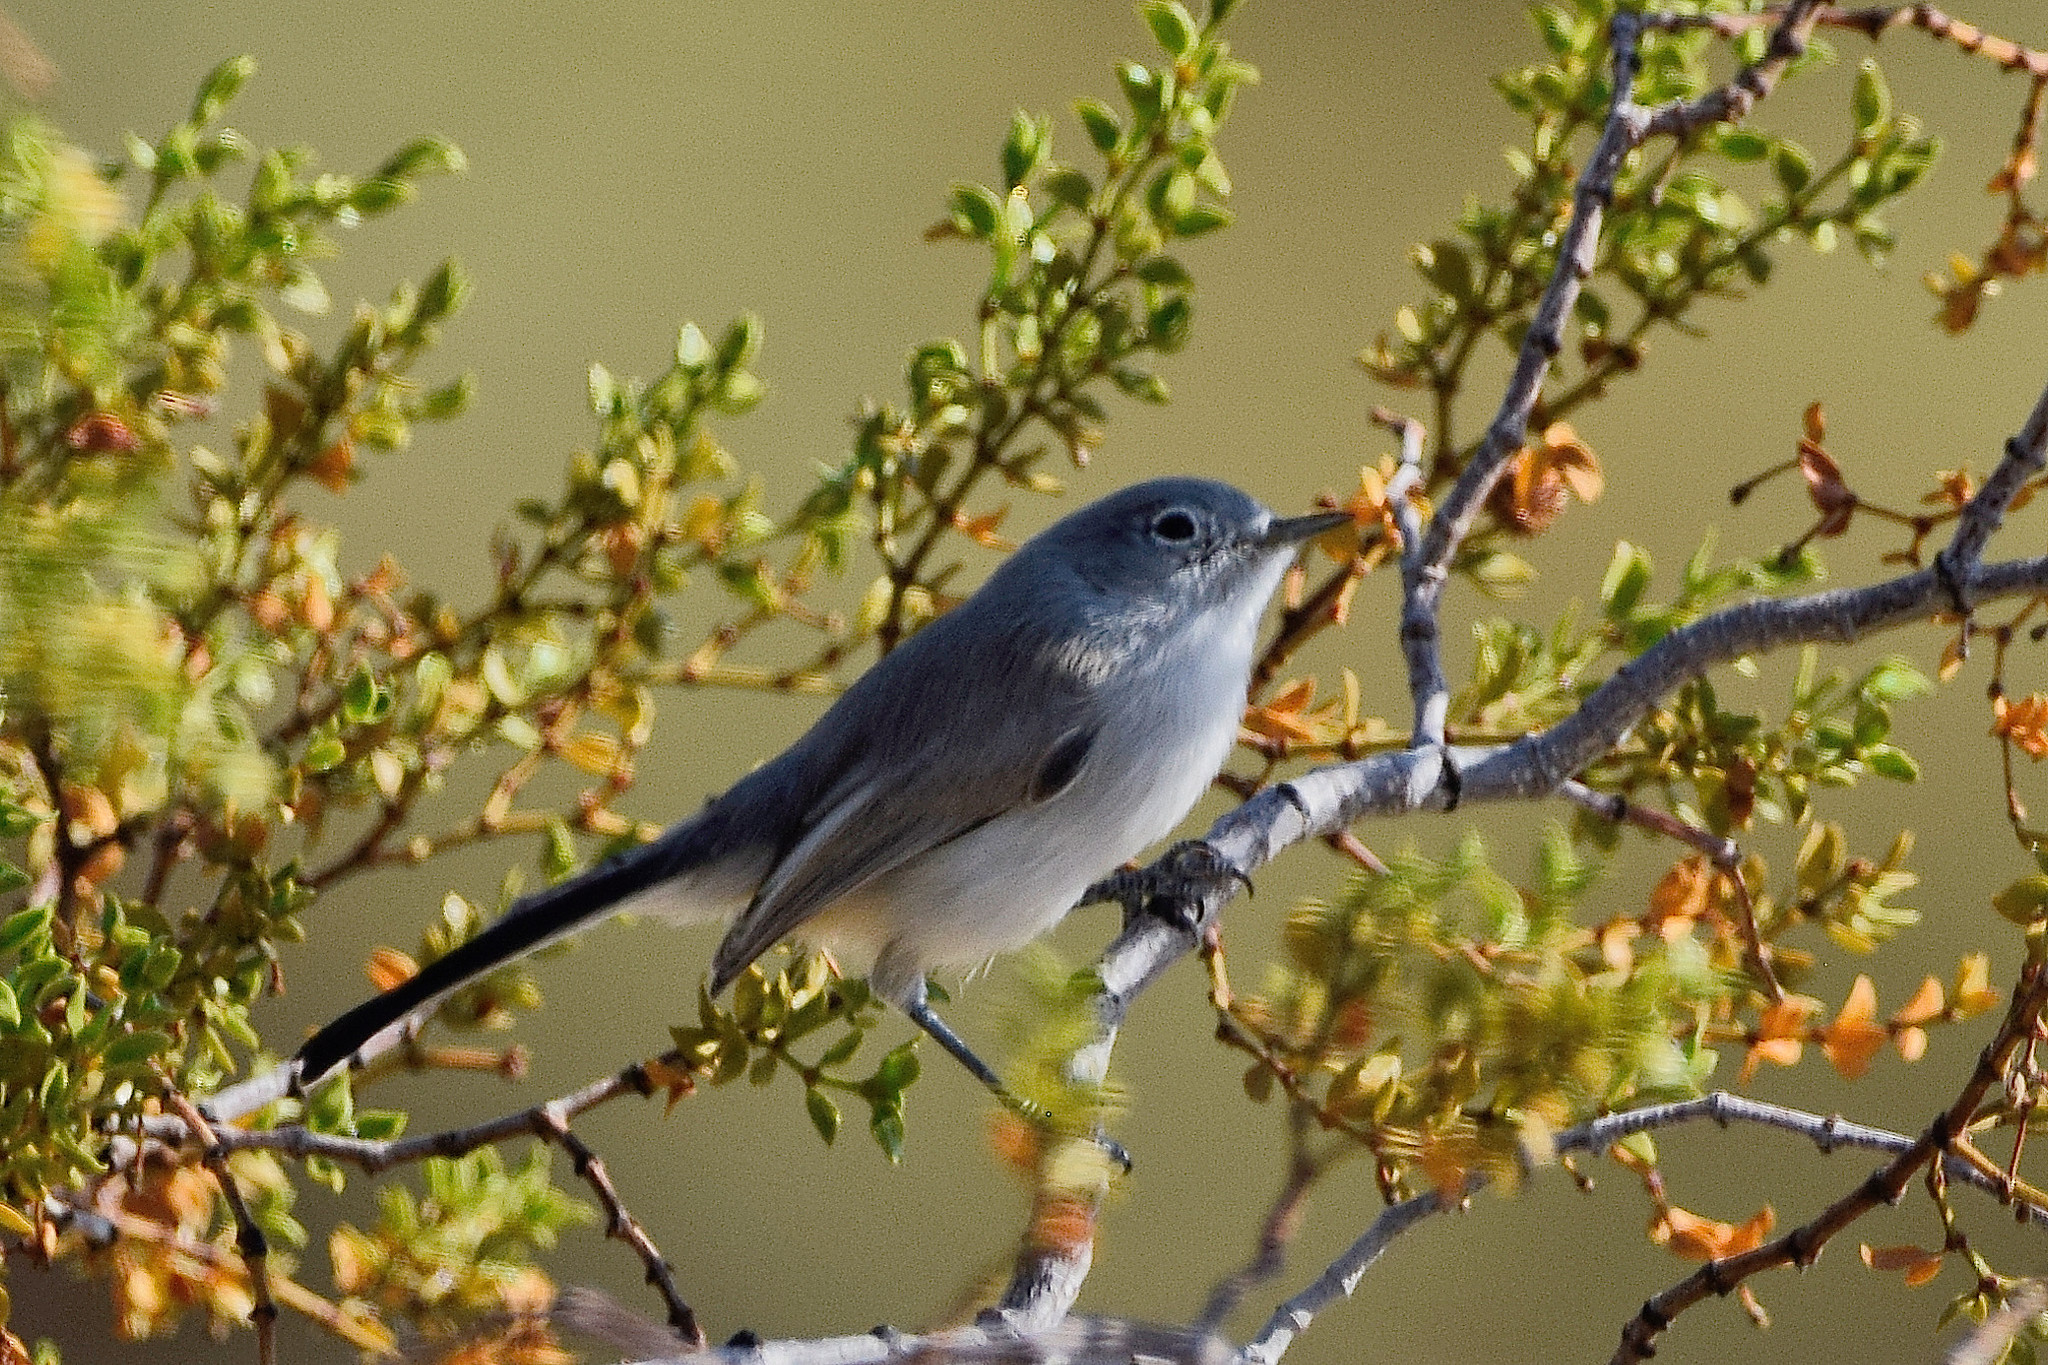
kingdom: Animalia
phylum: Chordata
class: Aves
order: Passeriformes
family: Polioptilidae
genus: Polioptila
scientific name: Polioptila caerulea
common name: Blue-gray gnatcatcher
